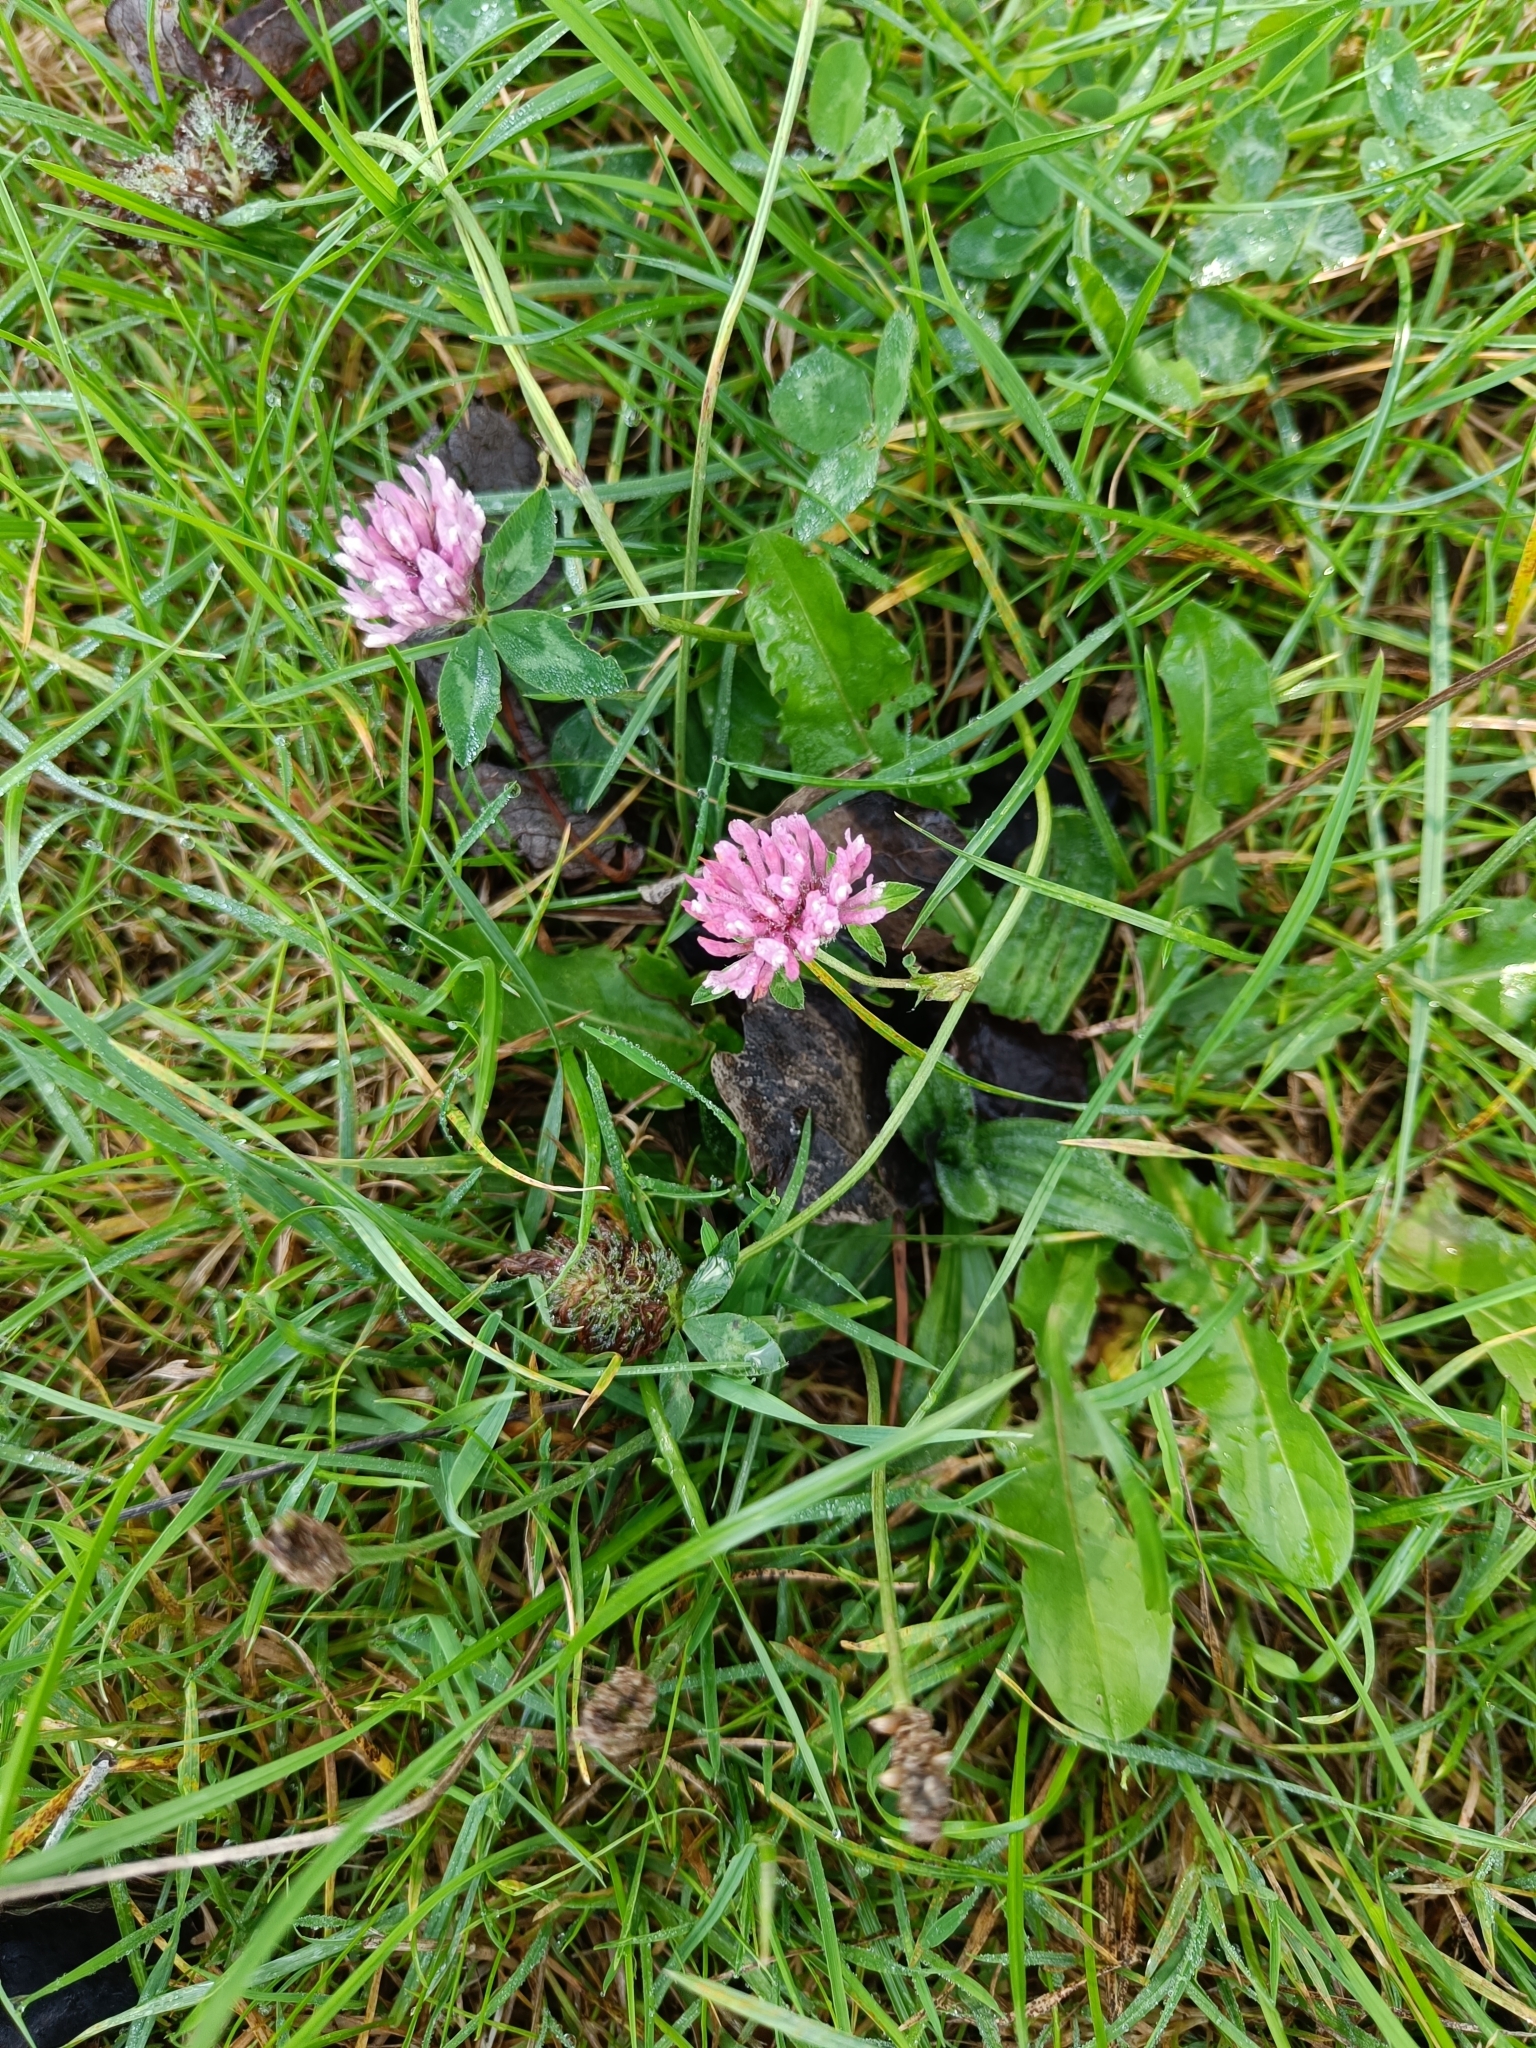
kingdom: Plantae
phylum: Tracheophyta
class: Magnoliopsida
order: Fabales
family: Fabaceae
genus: Trifolium
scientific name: Trifolium pratense
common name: Red clover
